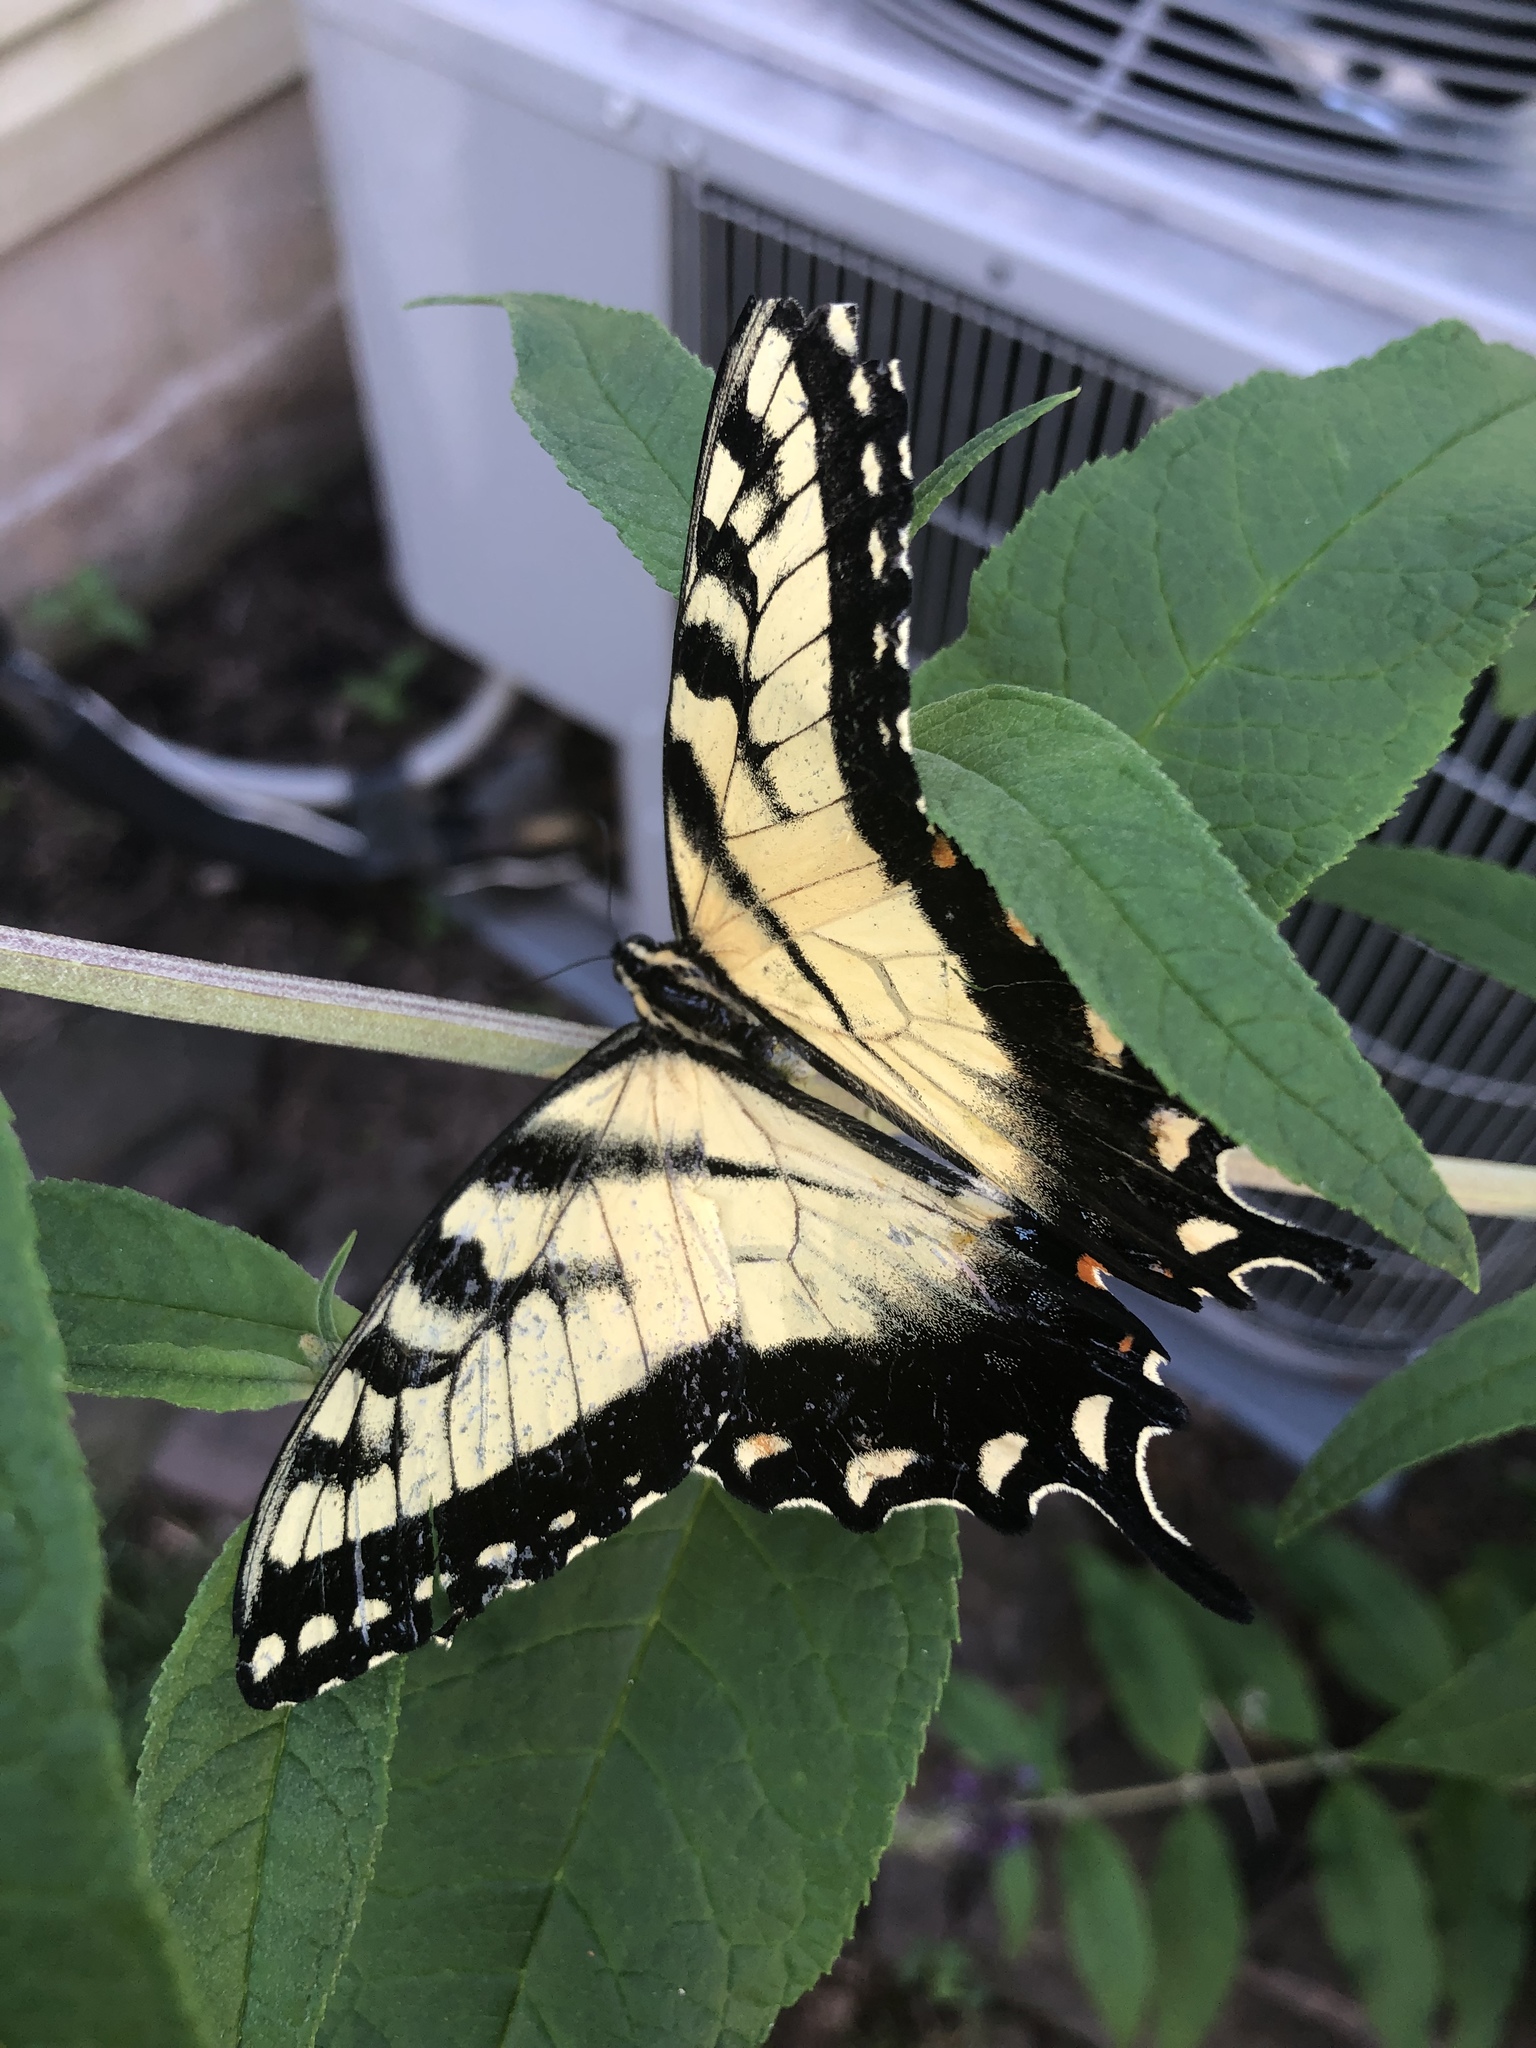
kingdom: Animalia
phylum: Arthropoda
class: Insecta
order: Lepidoptera
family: Papilionidae
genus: Papilio
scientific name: Papilio glaucus
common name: Tiger swallowtail
